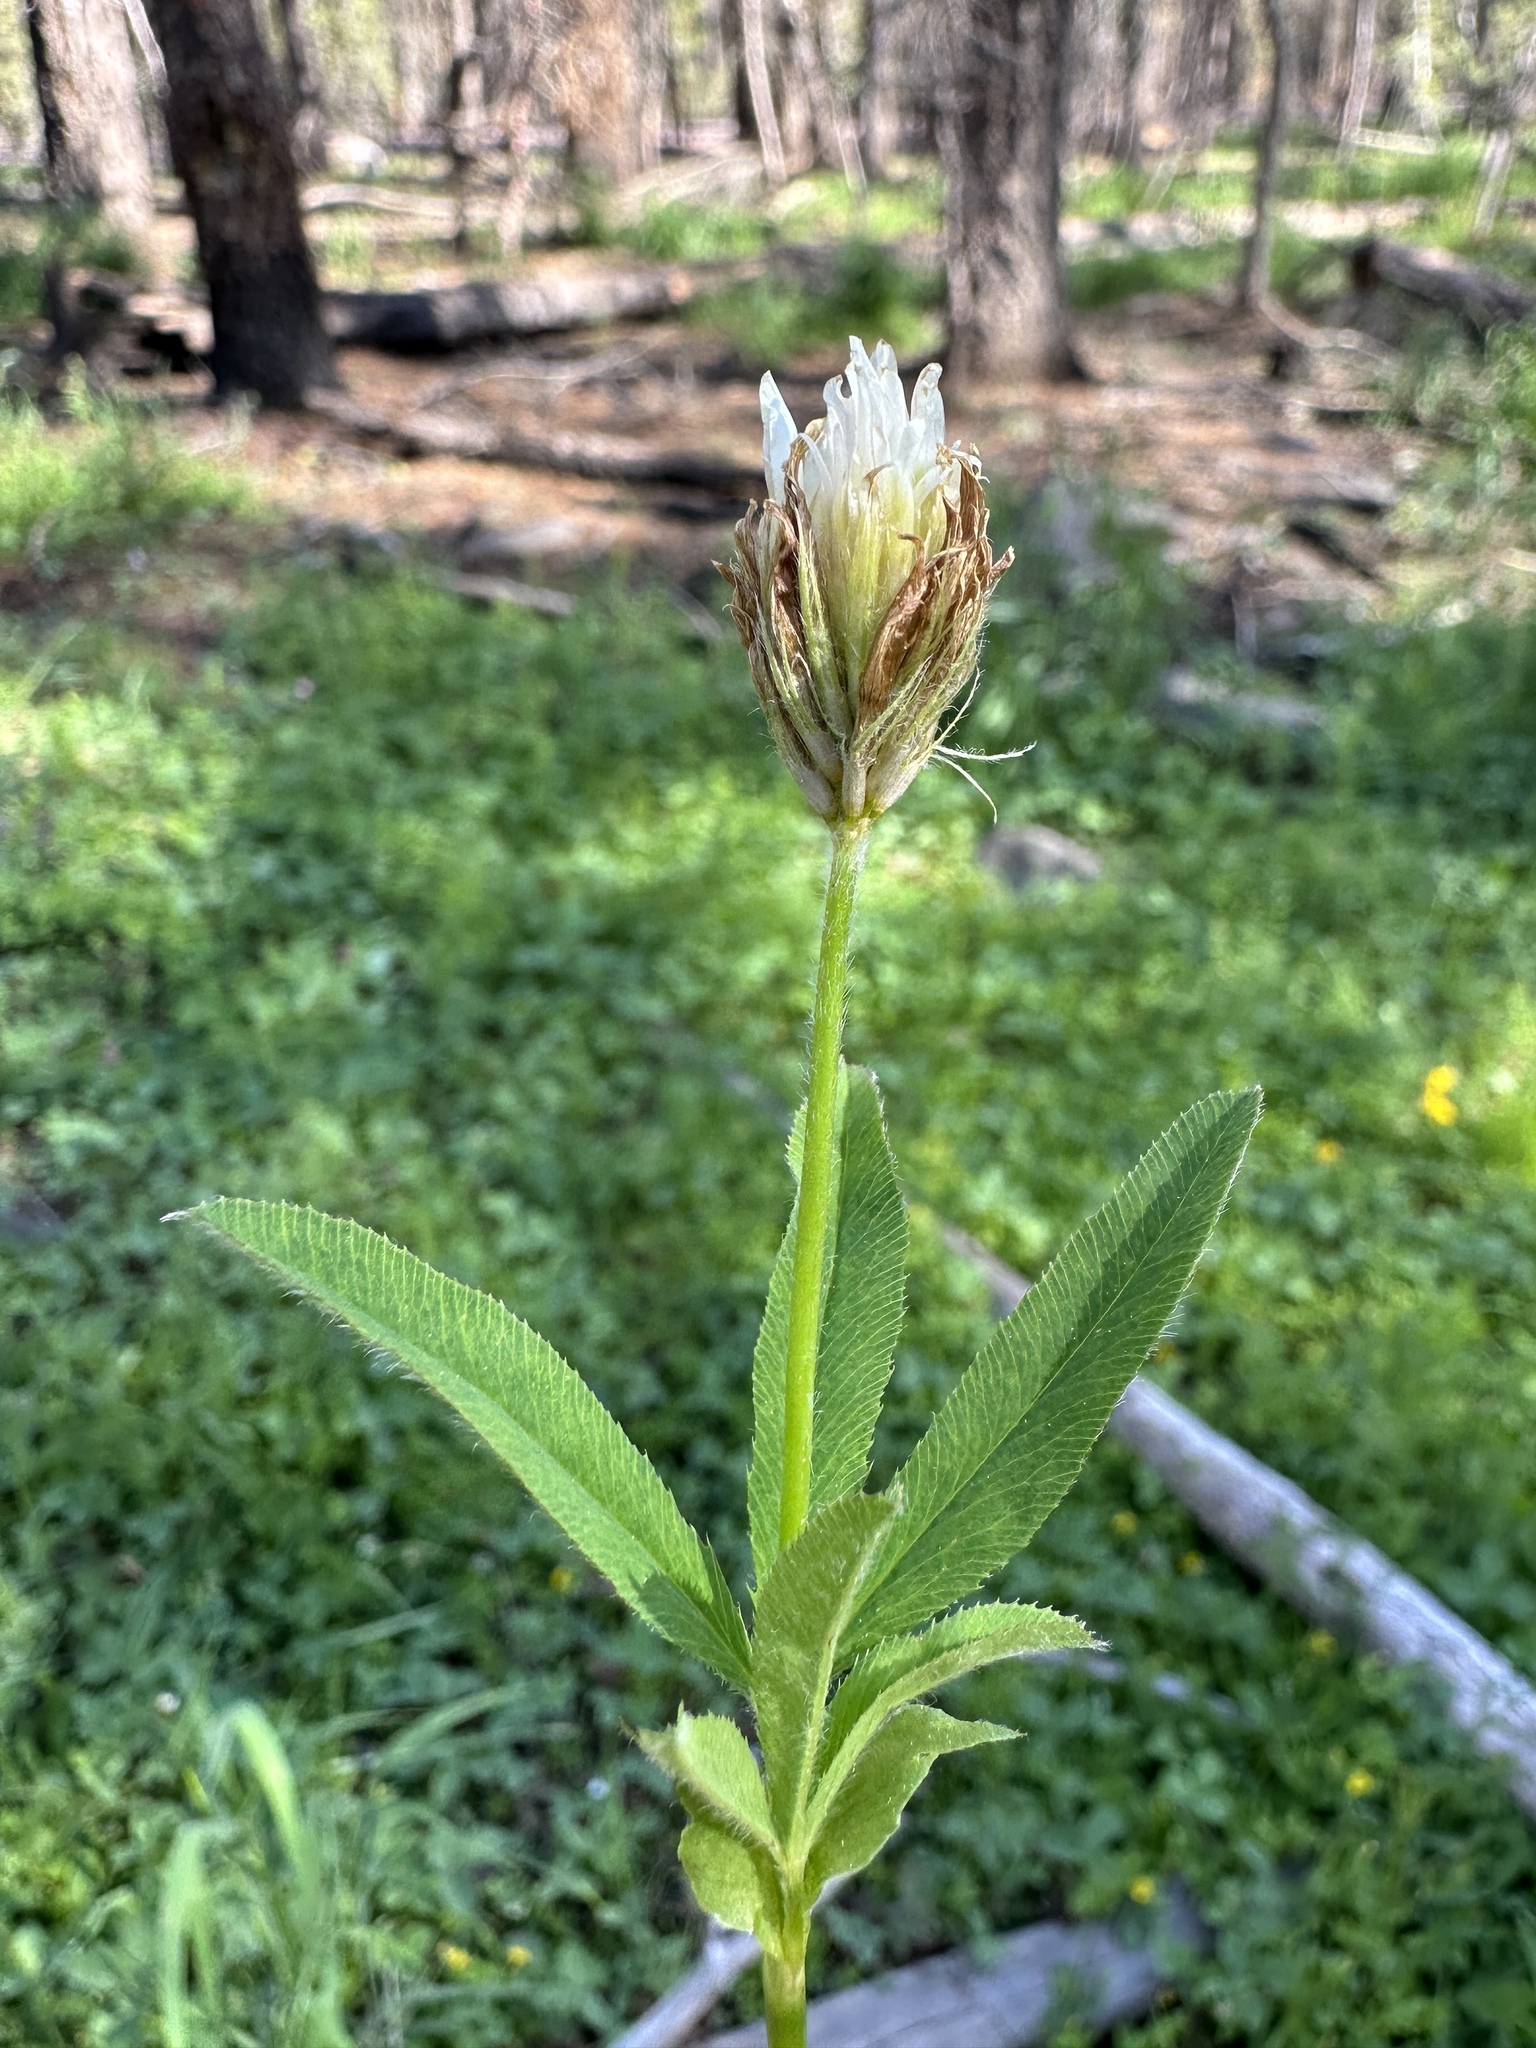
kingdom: Plantae
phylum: Tracheophyta
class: Magnoliopsida
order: Fabales
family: Fabaceae
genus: Trifolium
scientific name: Trifolium longipes
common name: Long-stalk clover
